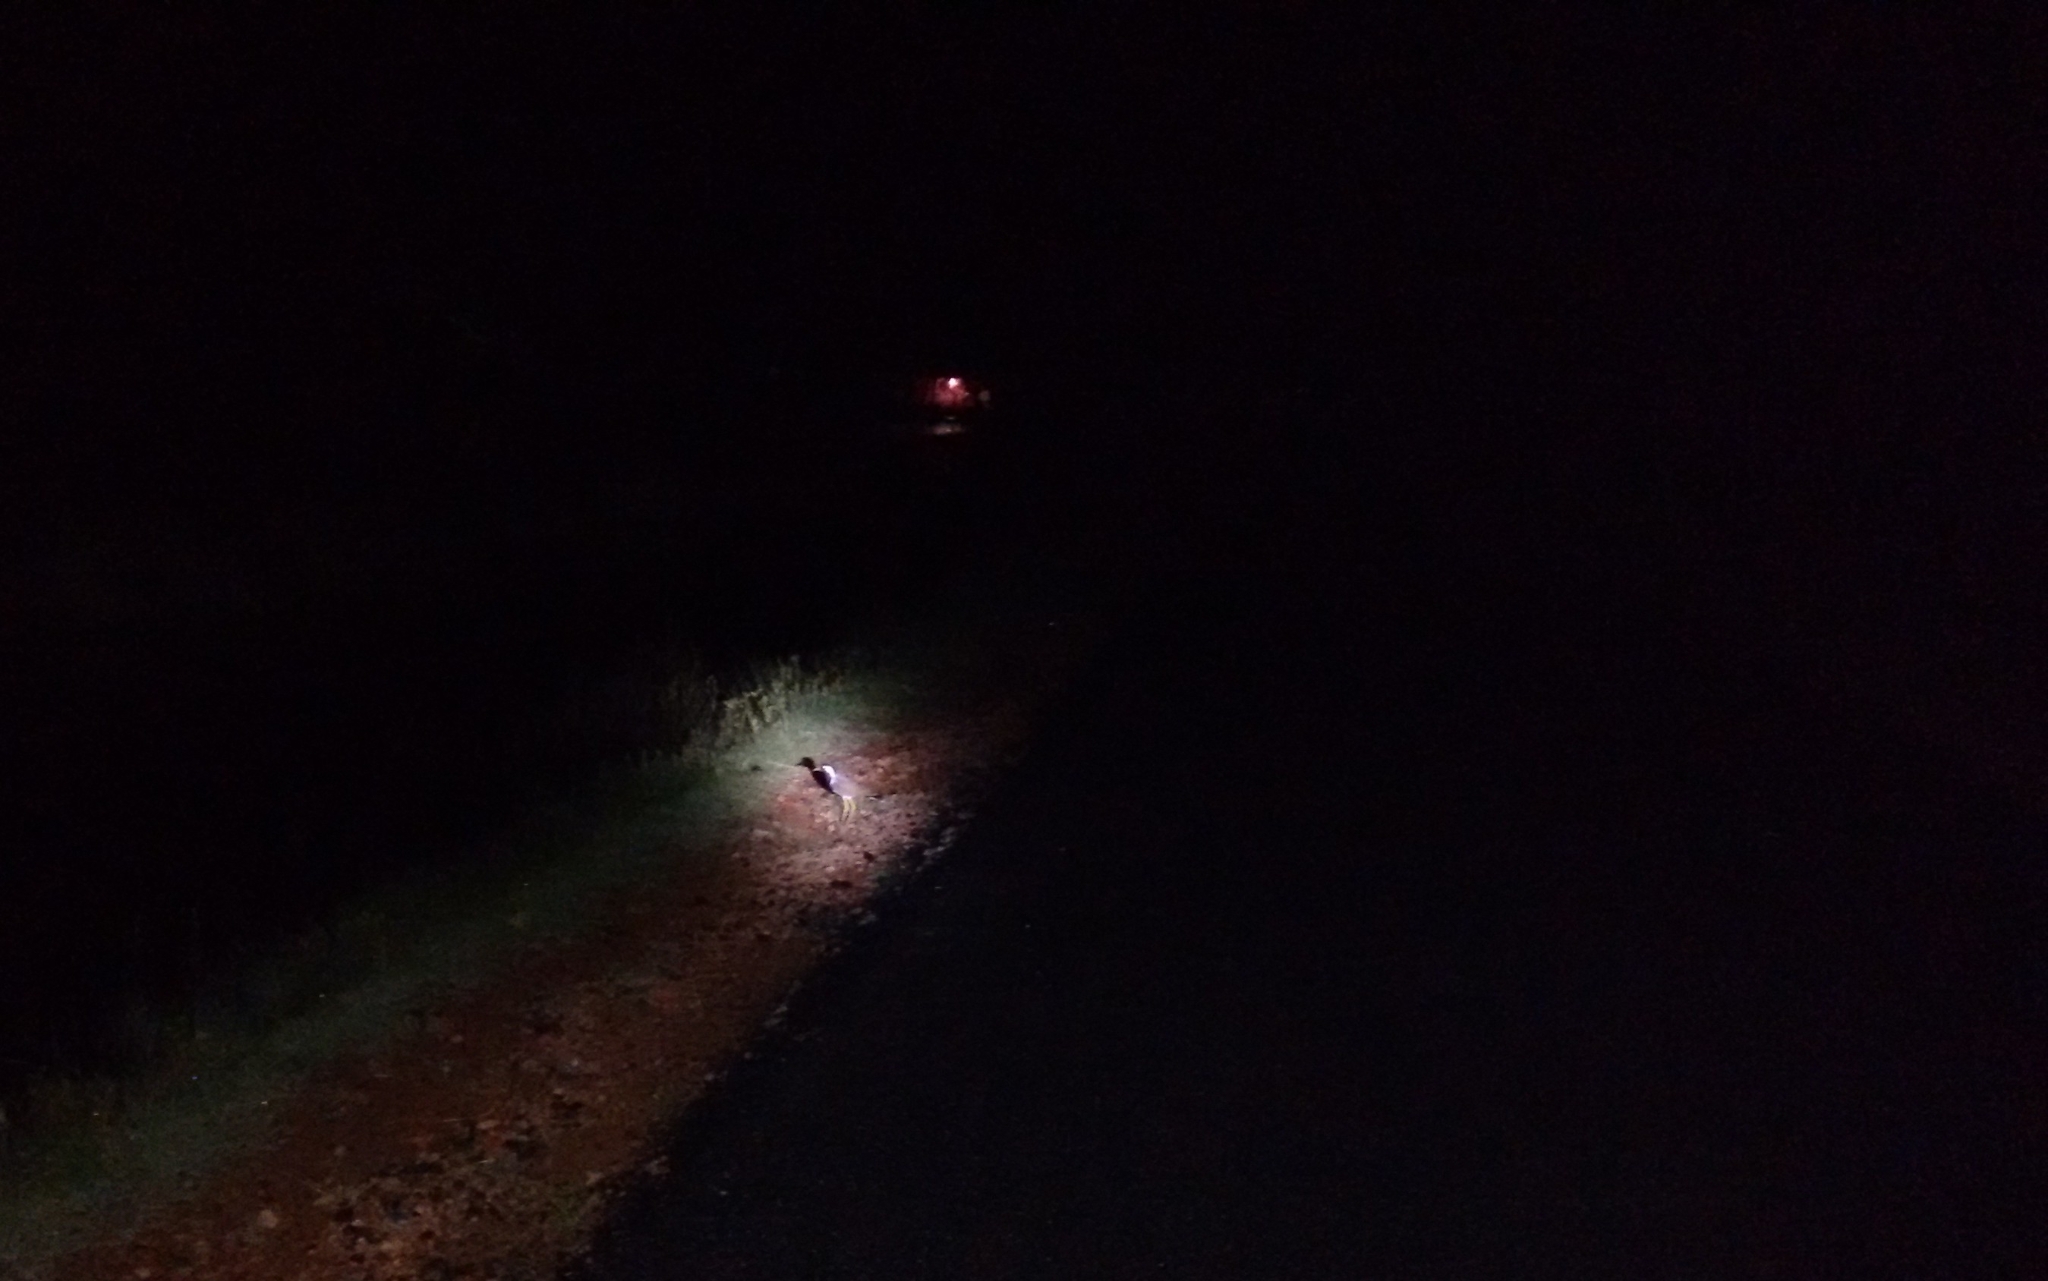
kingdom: Animalia
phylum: Chordata
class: Aves
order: Charadriiformes
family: Charadriidae
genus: Vanellus
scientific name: Vanellus indicus
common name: Red-wattled lapwing
